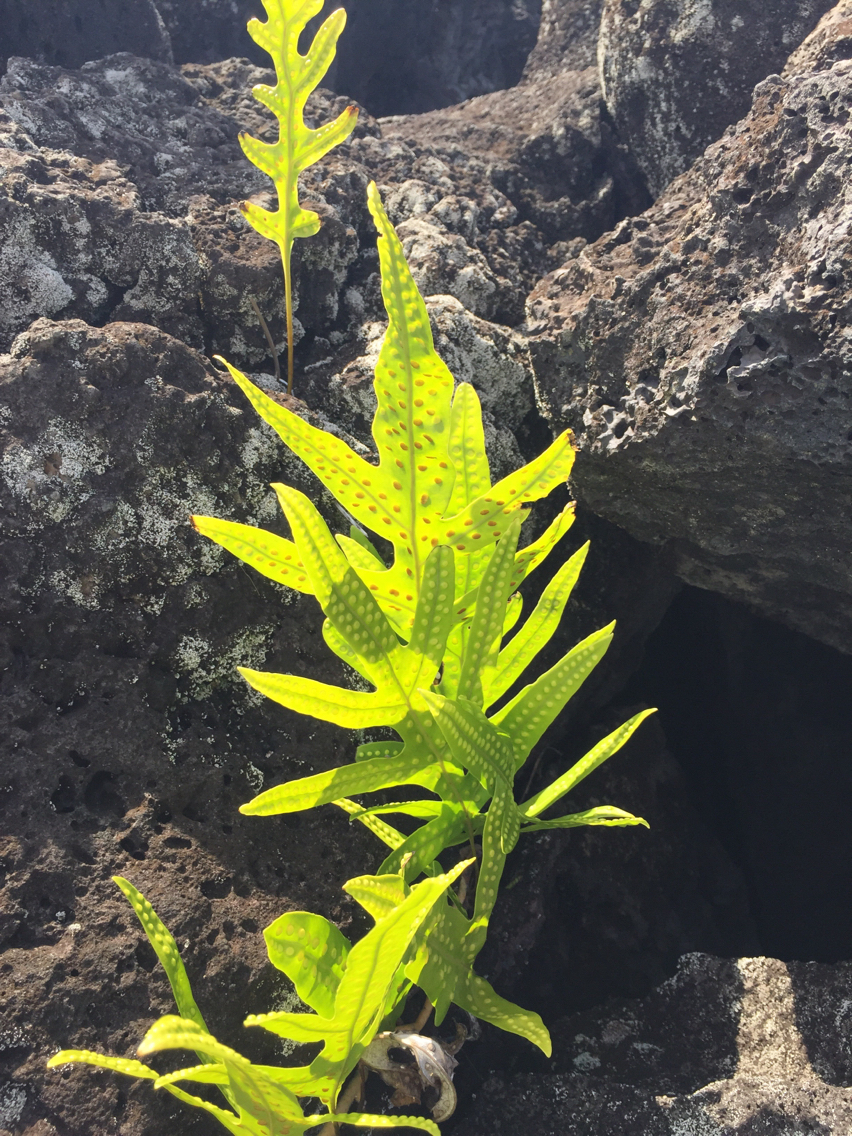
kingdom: Plantae
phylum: Tracheophyta
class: Polypodiopsida
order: Polypodiales
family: Polypodiaceae
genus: Microsorum
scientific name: Microsorum grossum
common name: Musk fern
